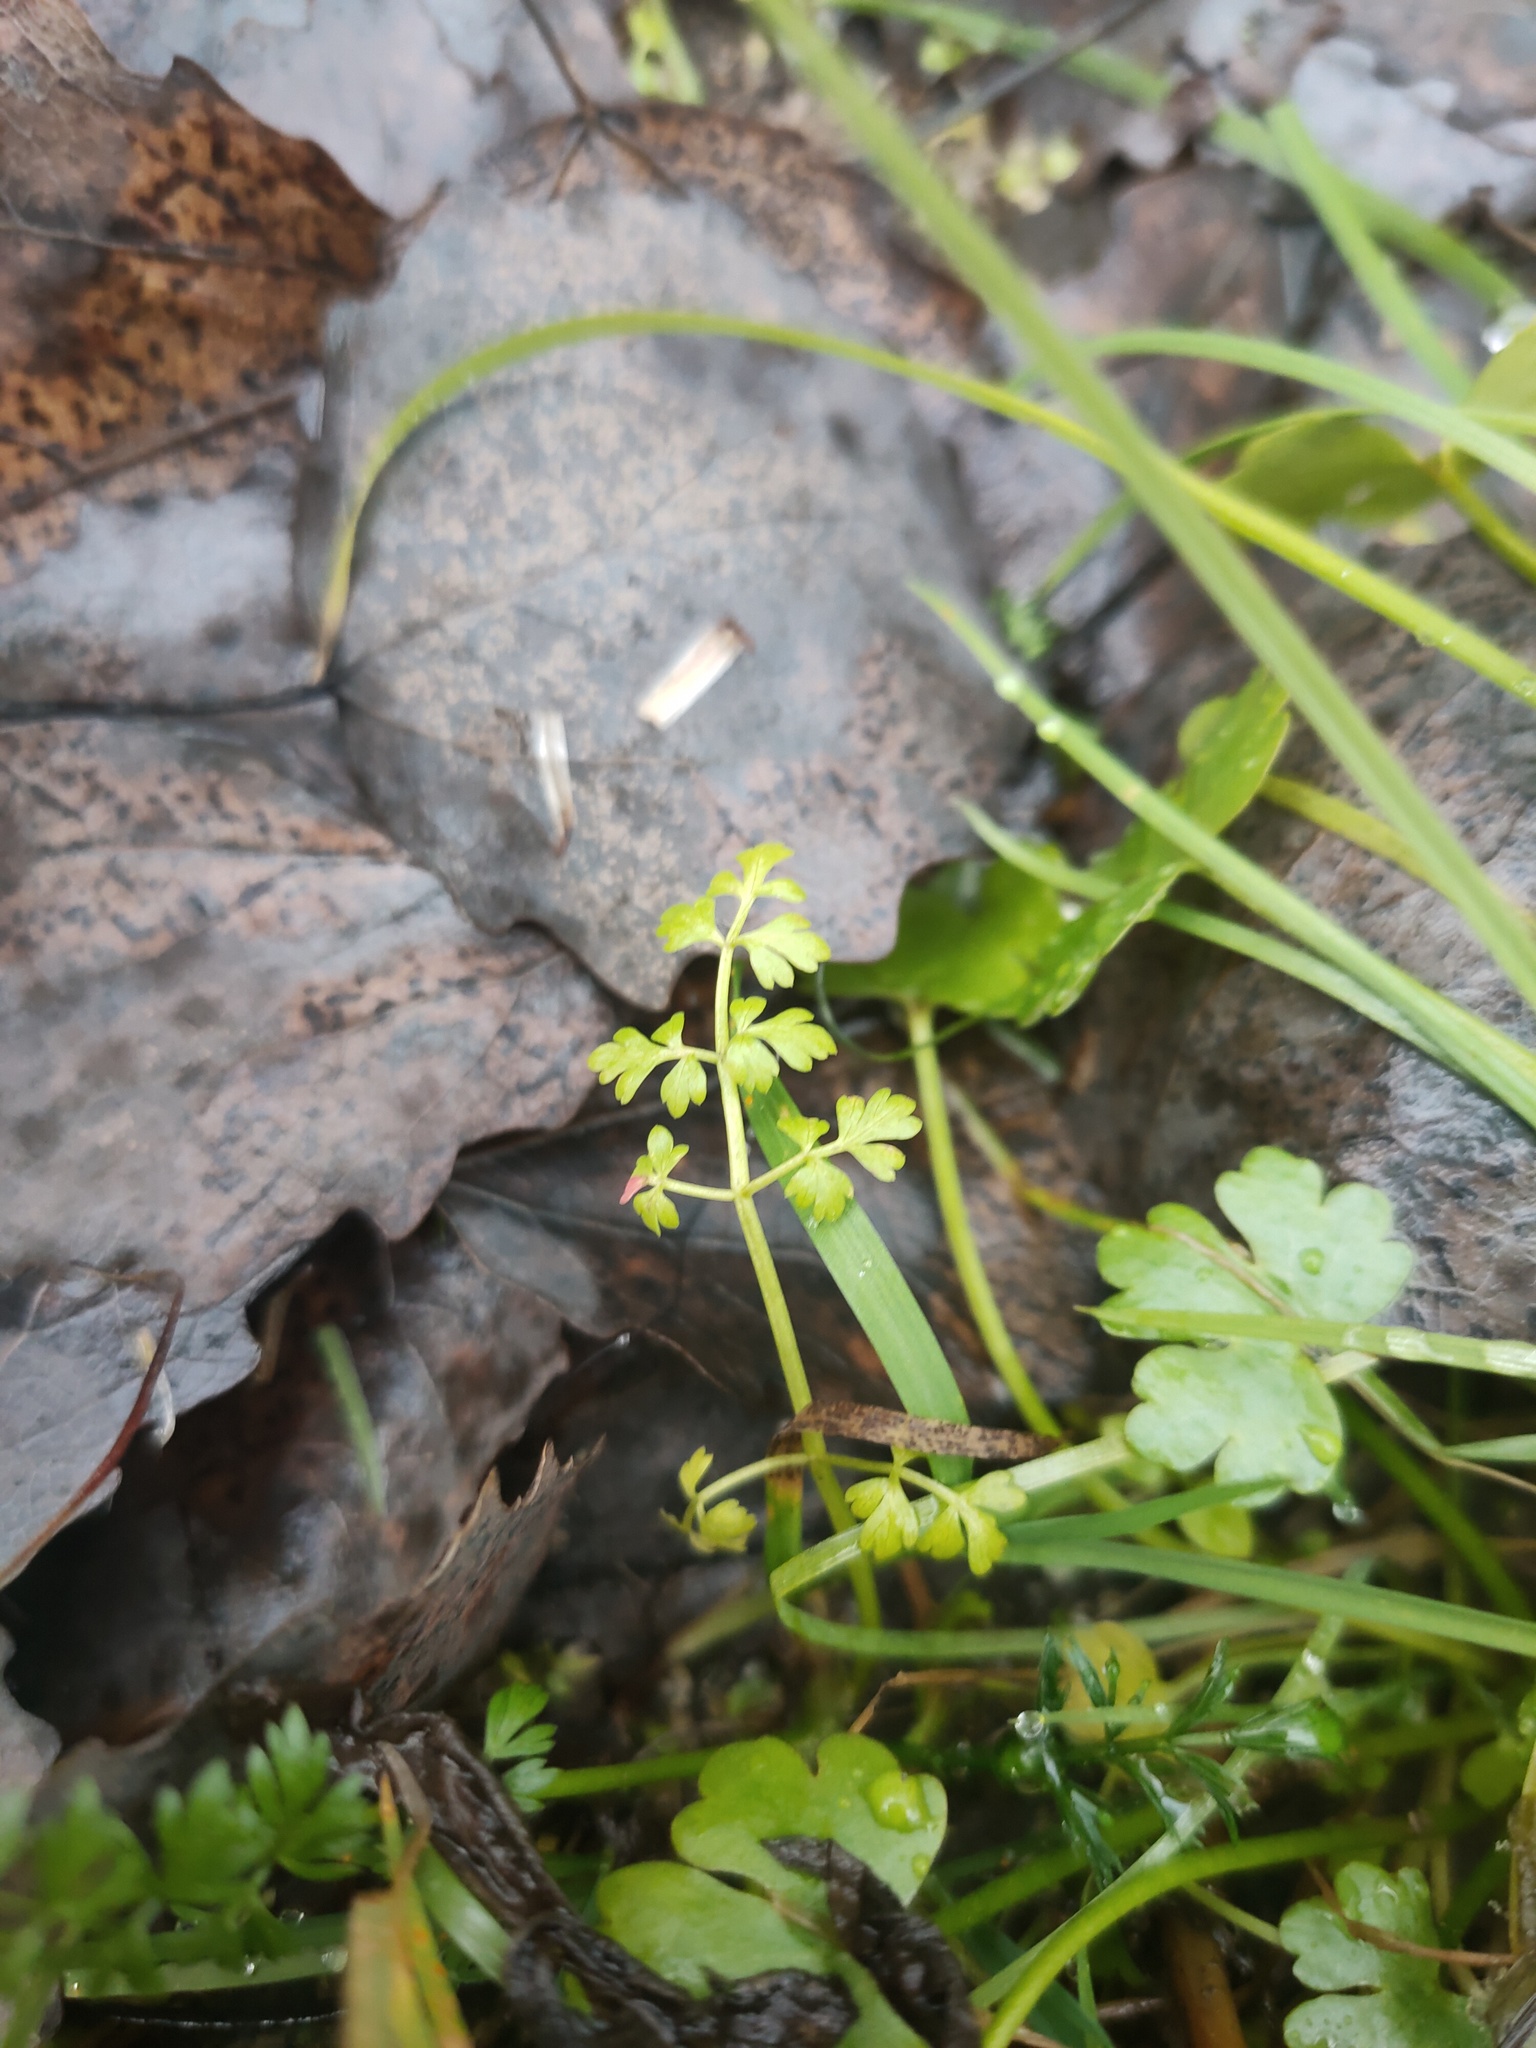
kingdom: Plantae
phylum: Tracheophyta
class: Magnoliopsida
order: Apiales
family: Apiaceae
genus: Anthriscus
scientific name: Anthriscus sylvestris
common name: Cow parsley
